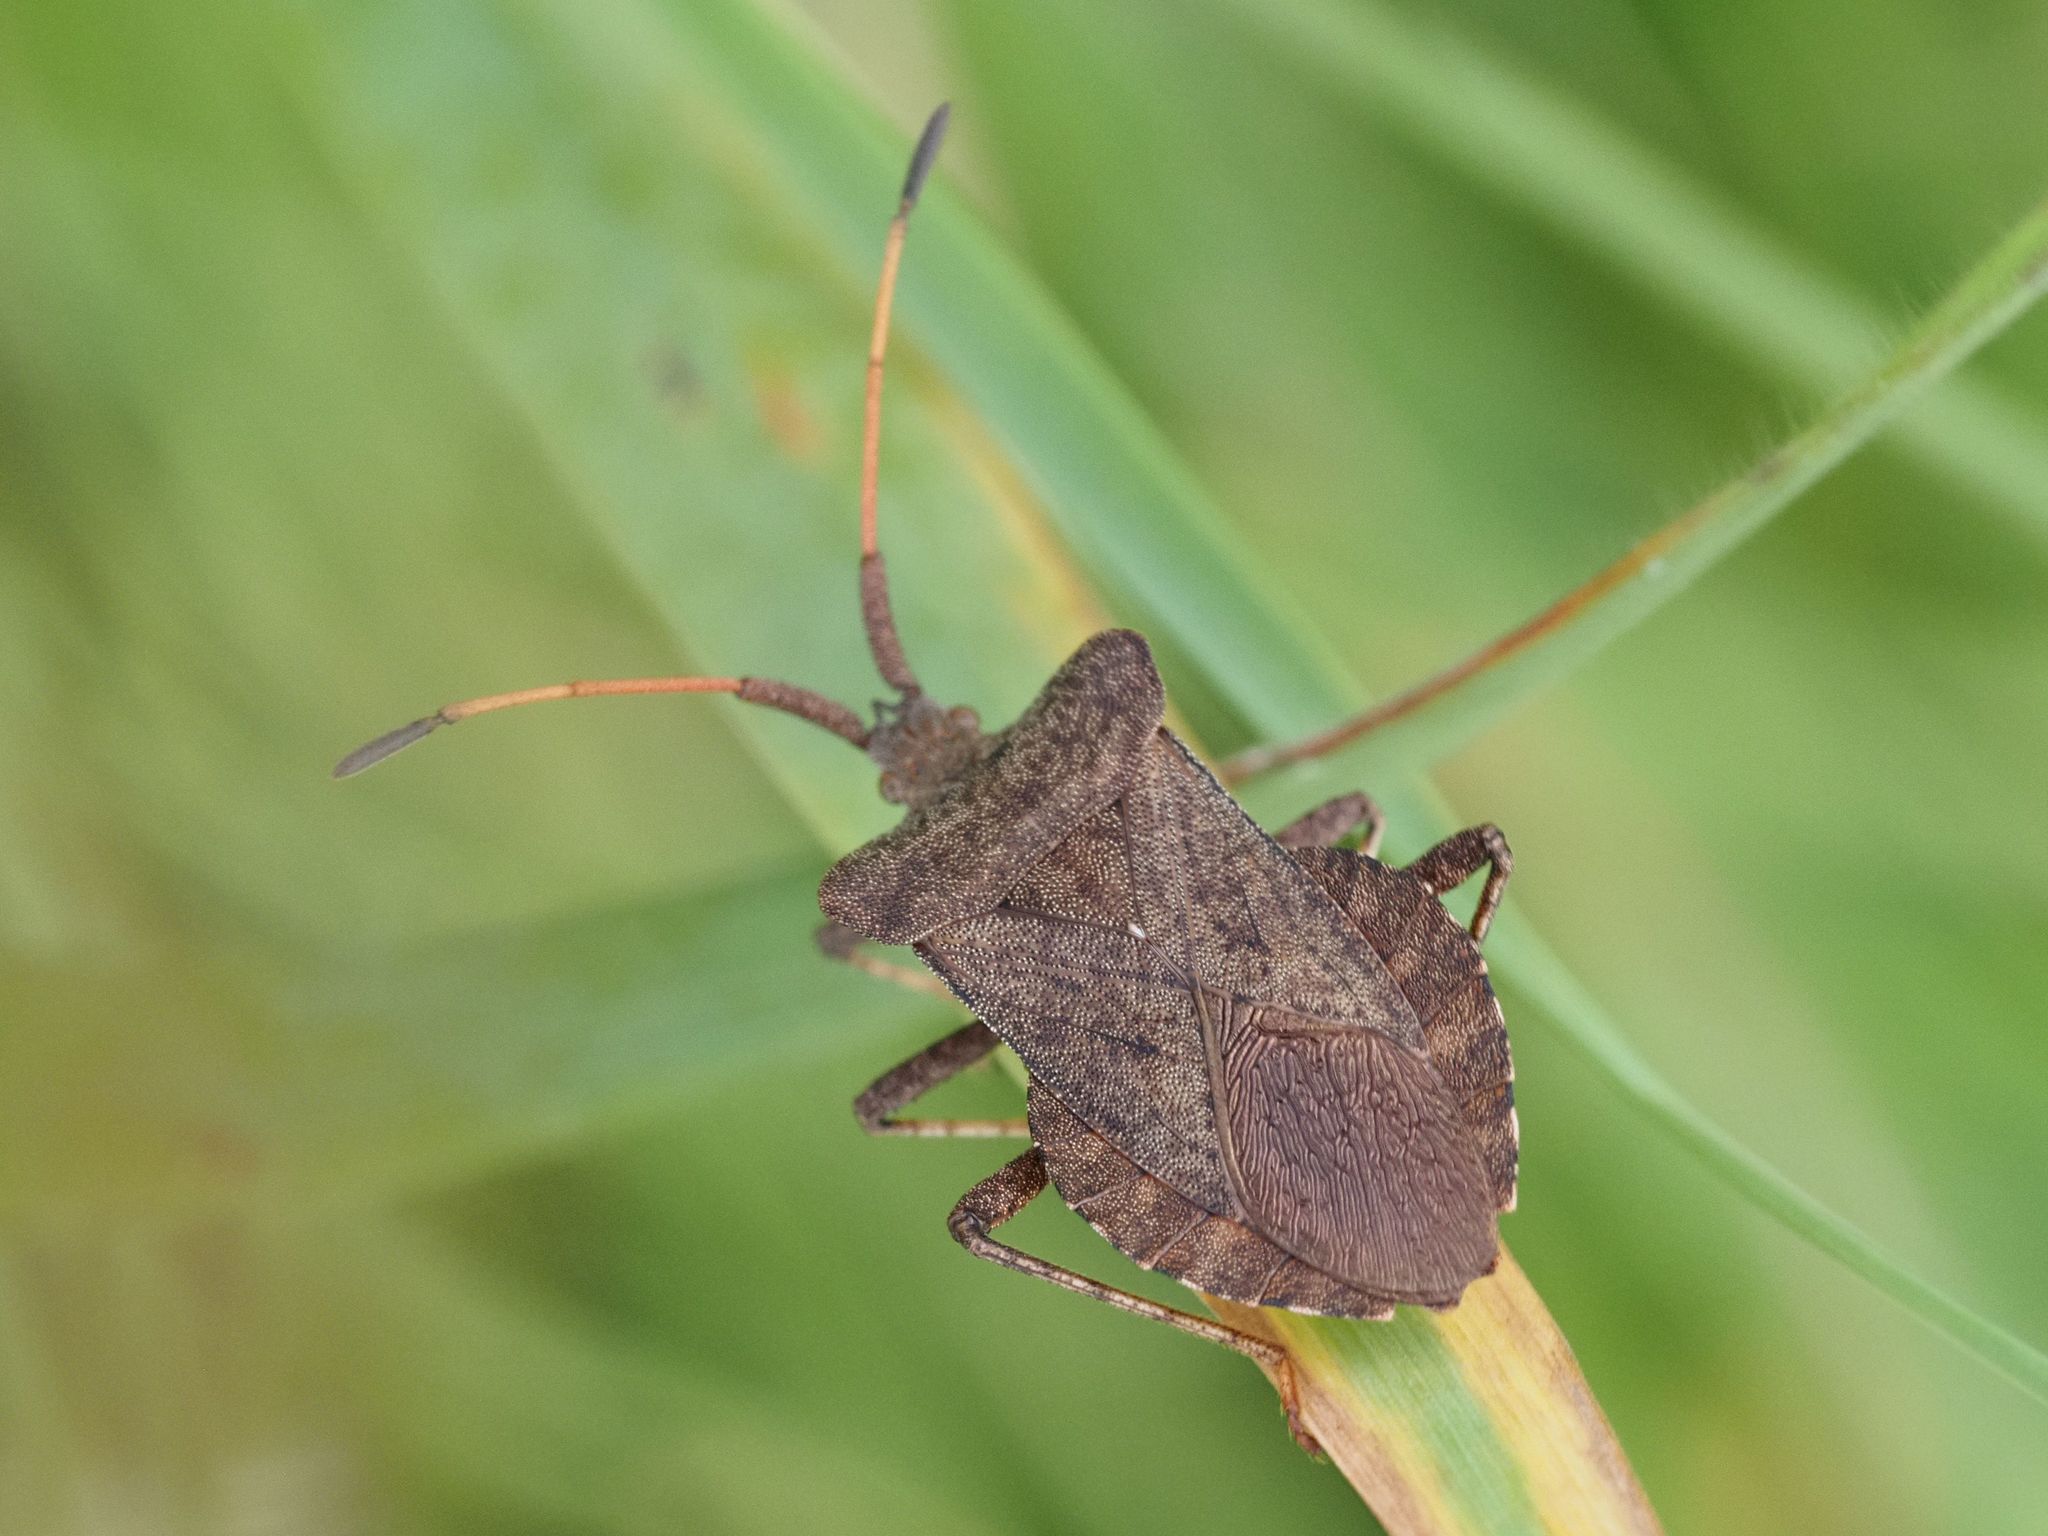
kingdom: Animalia
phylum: Arthropoda
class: Insecta
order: Hemiptera
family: Coreidae
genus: Coreus
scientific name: Coreus marginatus
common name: Dock bug
